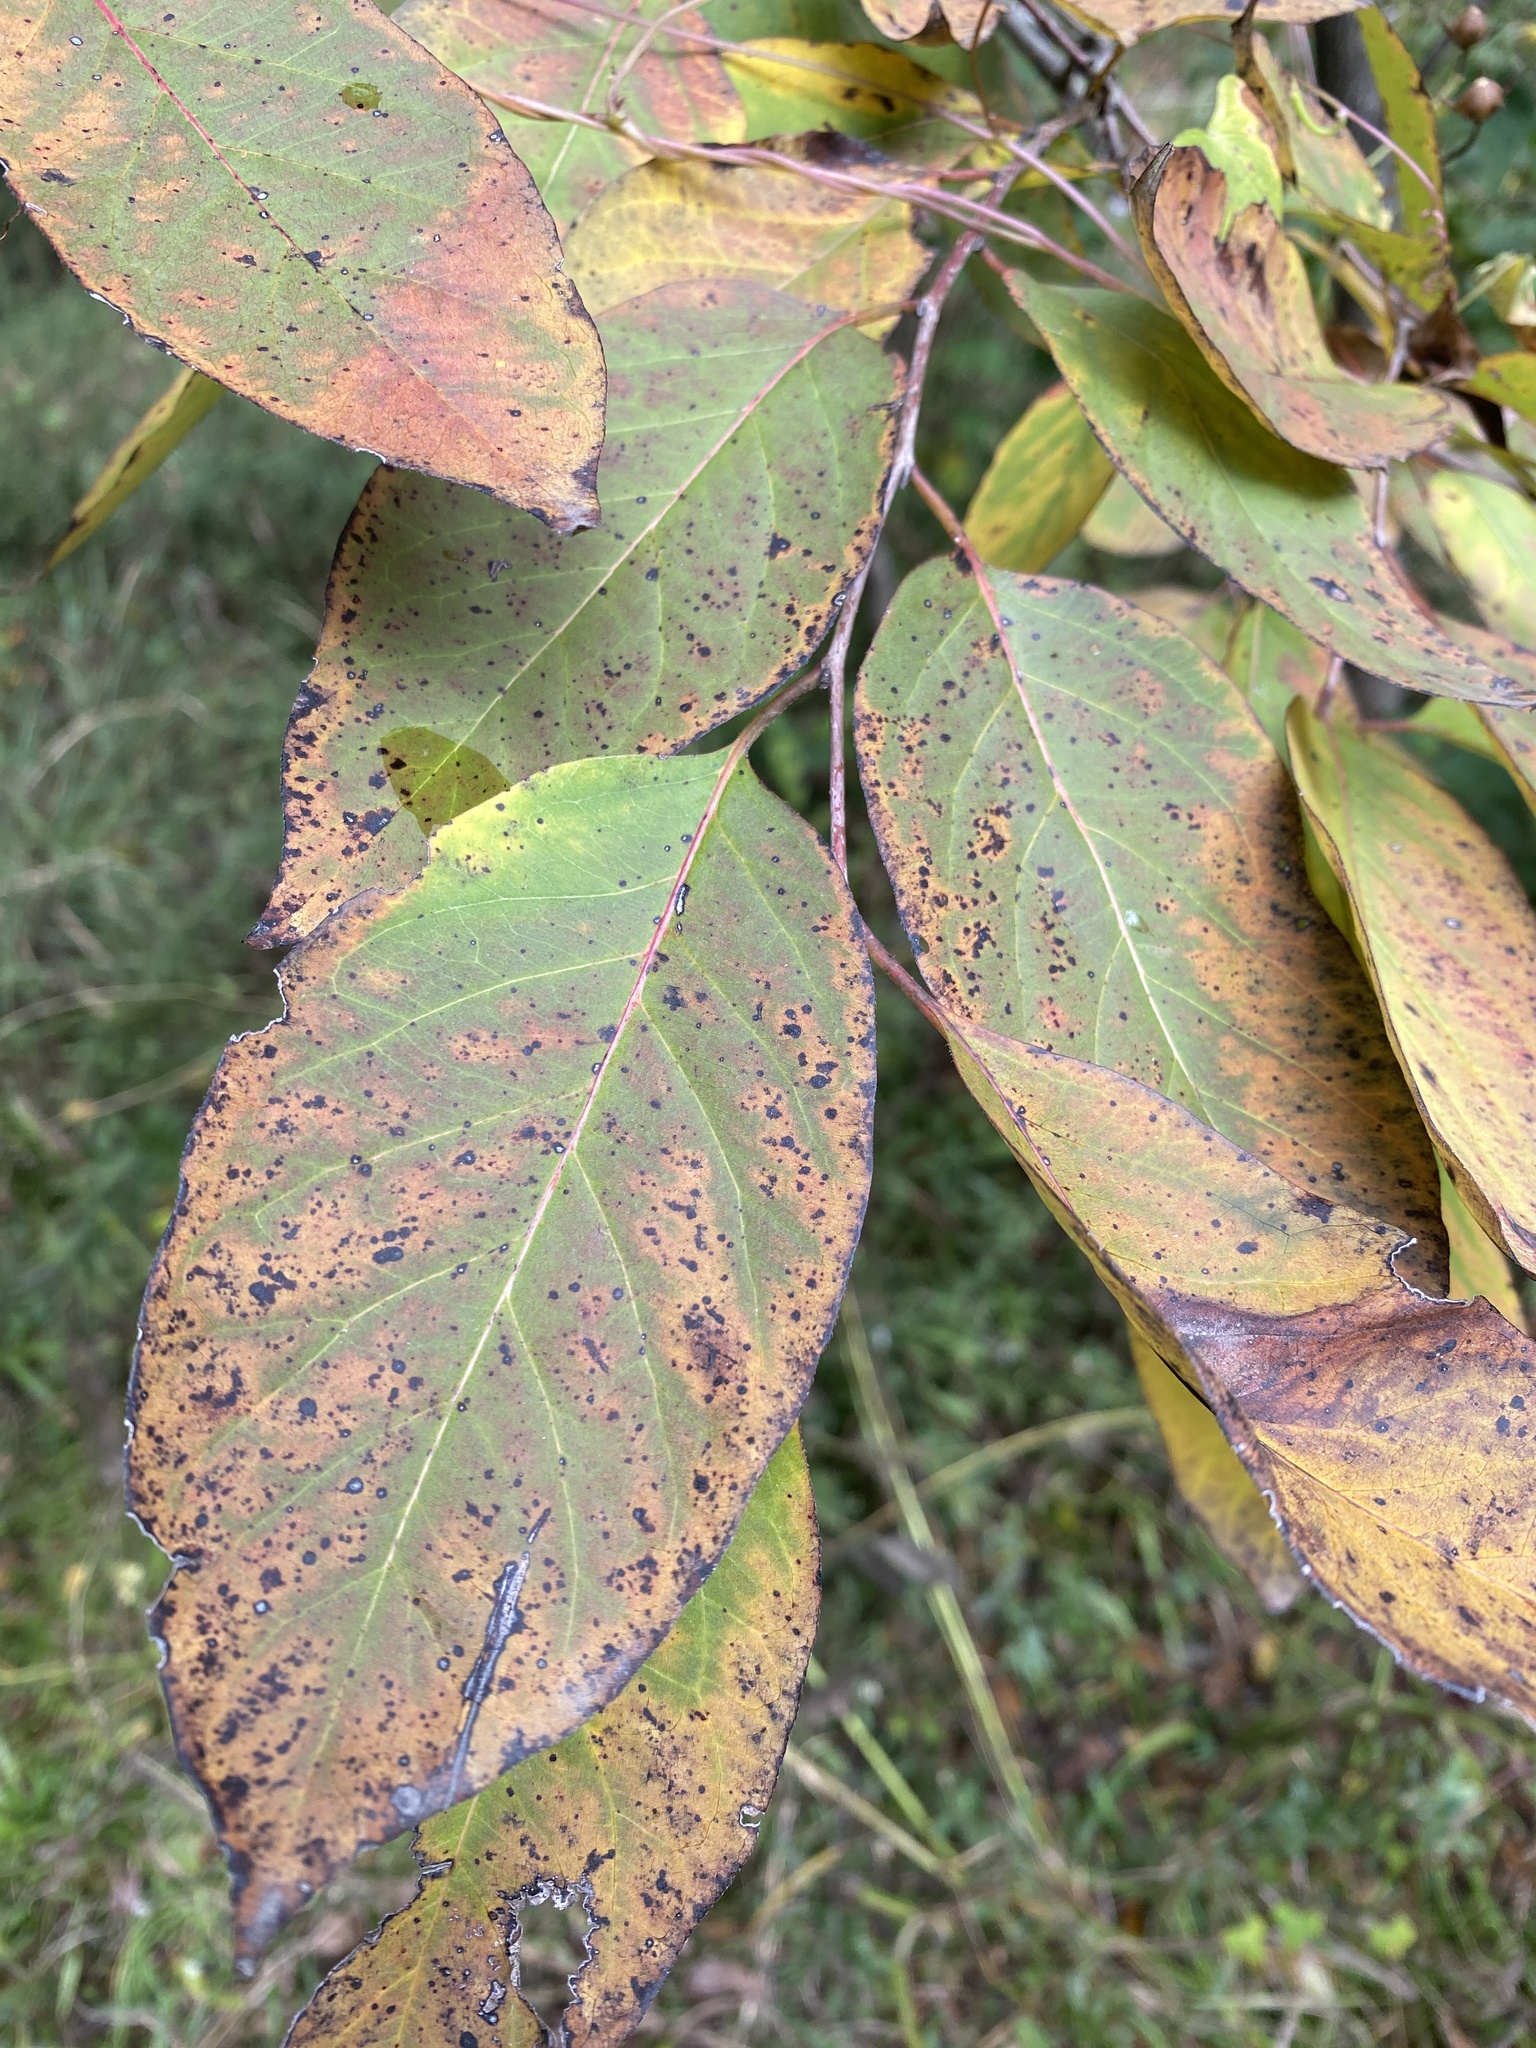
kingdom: Plantae
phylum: Tracheophyta
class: Magnoliopsida
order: Ericales
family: Ebenaceae
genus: Diospyros
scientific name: Diospyros virginiana
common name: Persimmon
